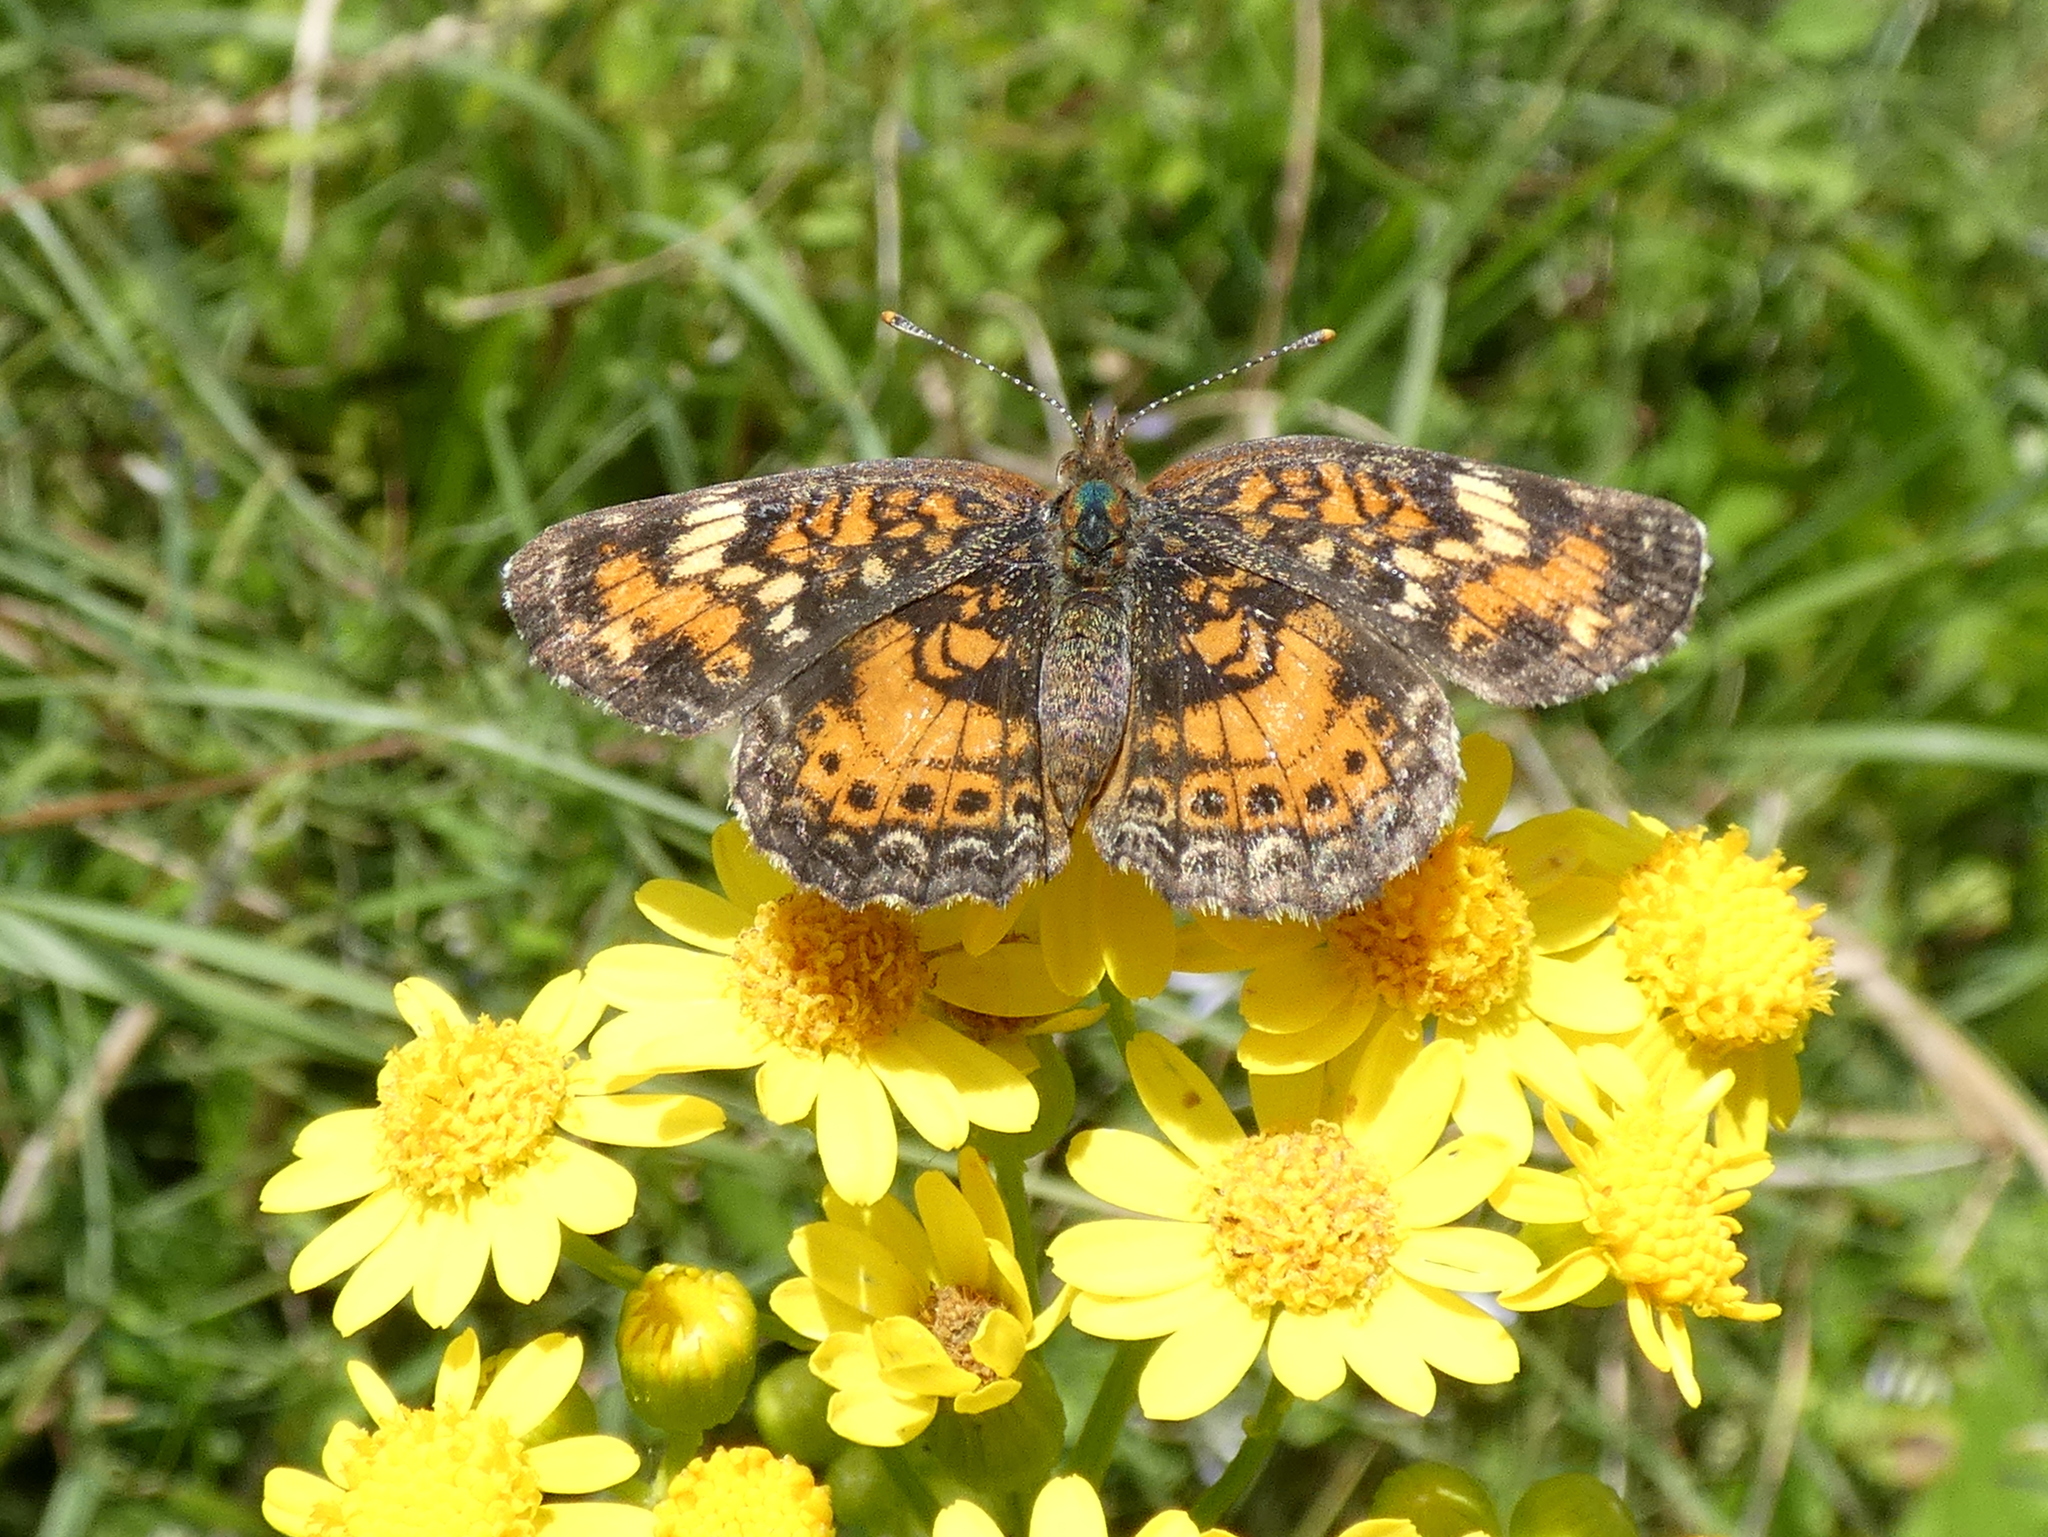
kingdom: Animalia
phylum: Arthropoda
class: Insecta
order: Lepidoptera
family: Nymphalidae
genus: Phyciodes
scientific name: Phyciodes phaon
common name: Phaon crescent
